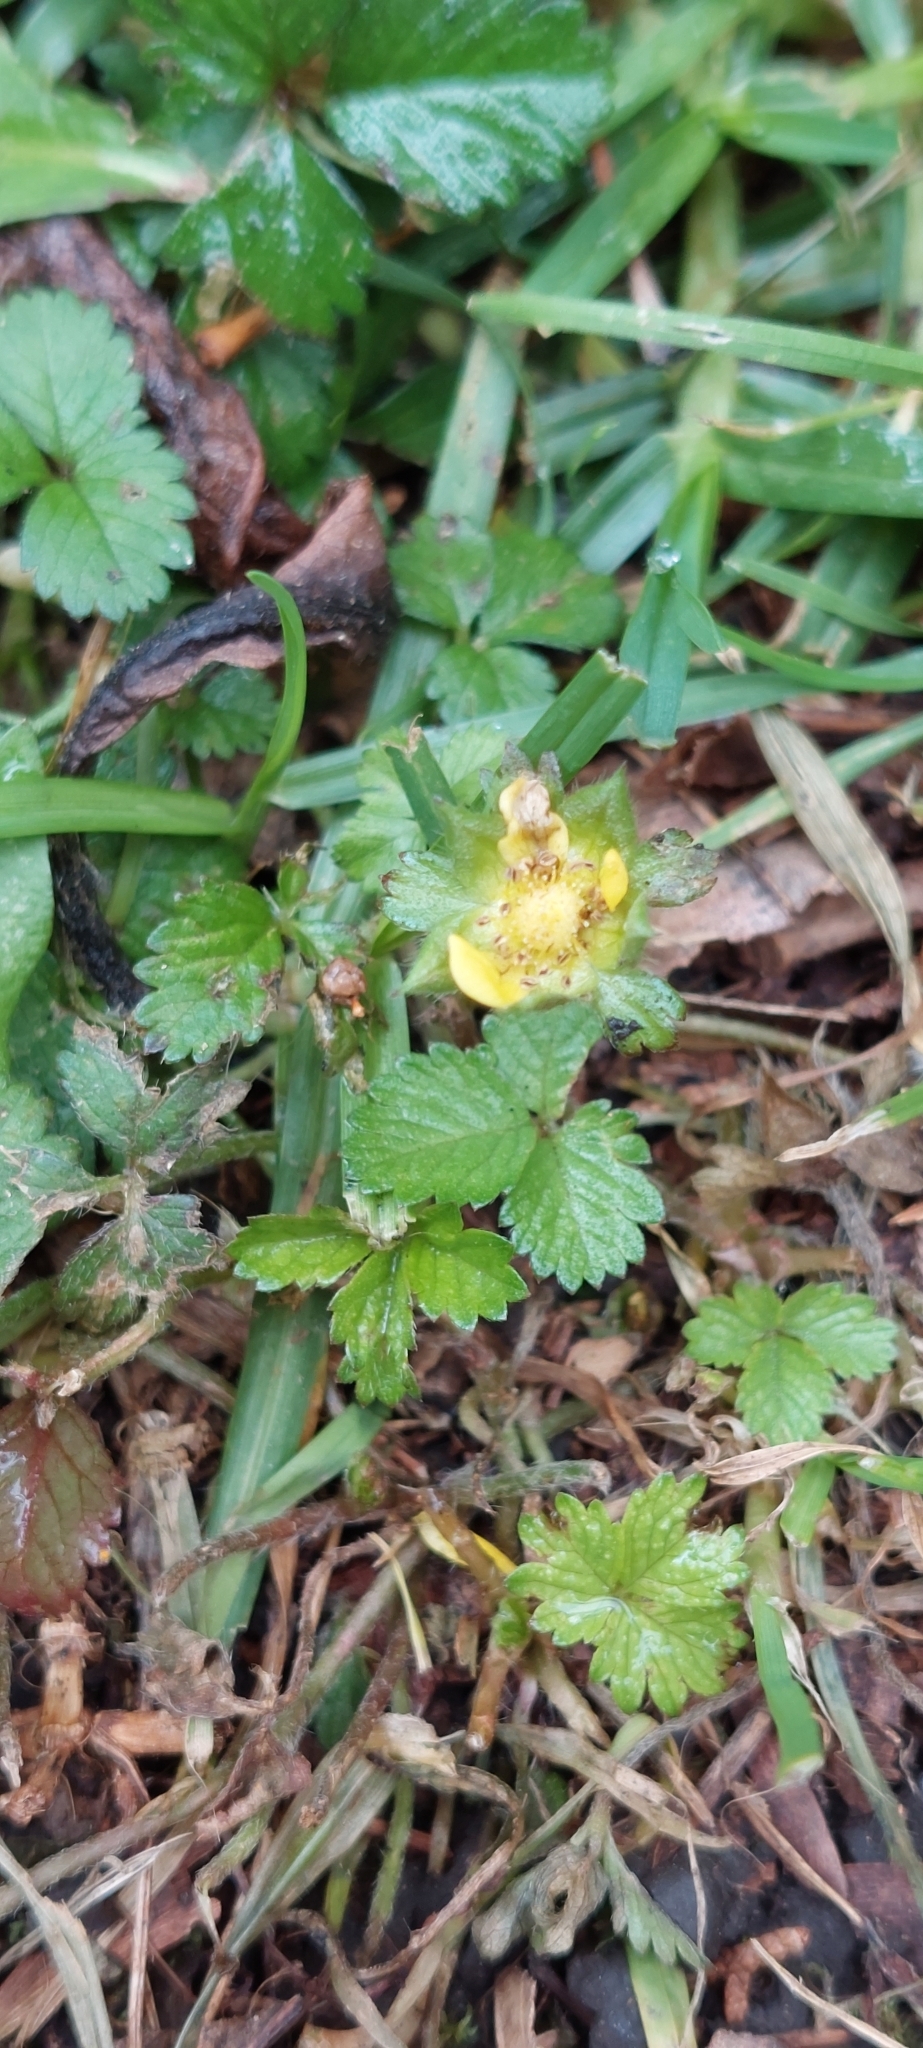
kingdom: Plantae
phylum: Tracheophyta
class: Magnoliopsida
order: Rosales
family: Rosaceae
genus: Potentilla
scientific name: Potentilla indica
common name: Yellow-flowered strawberry
